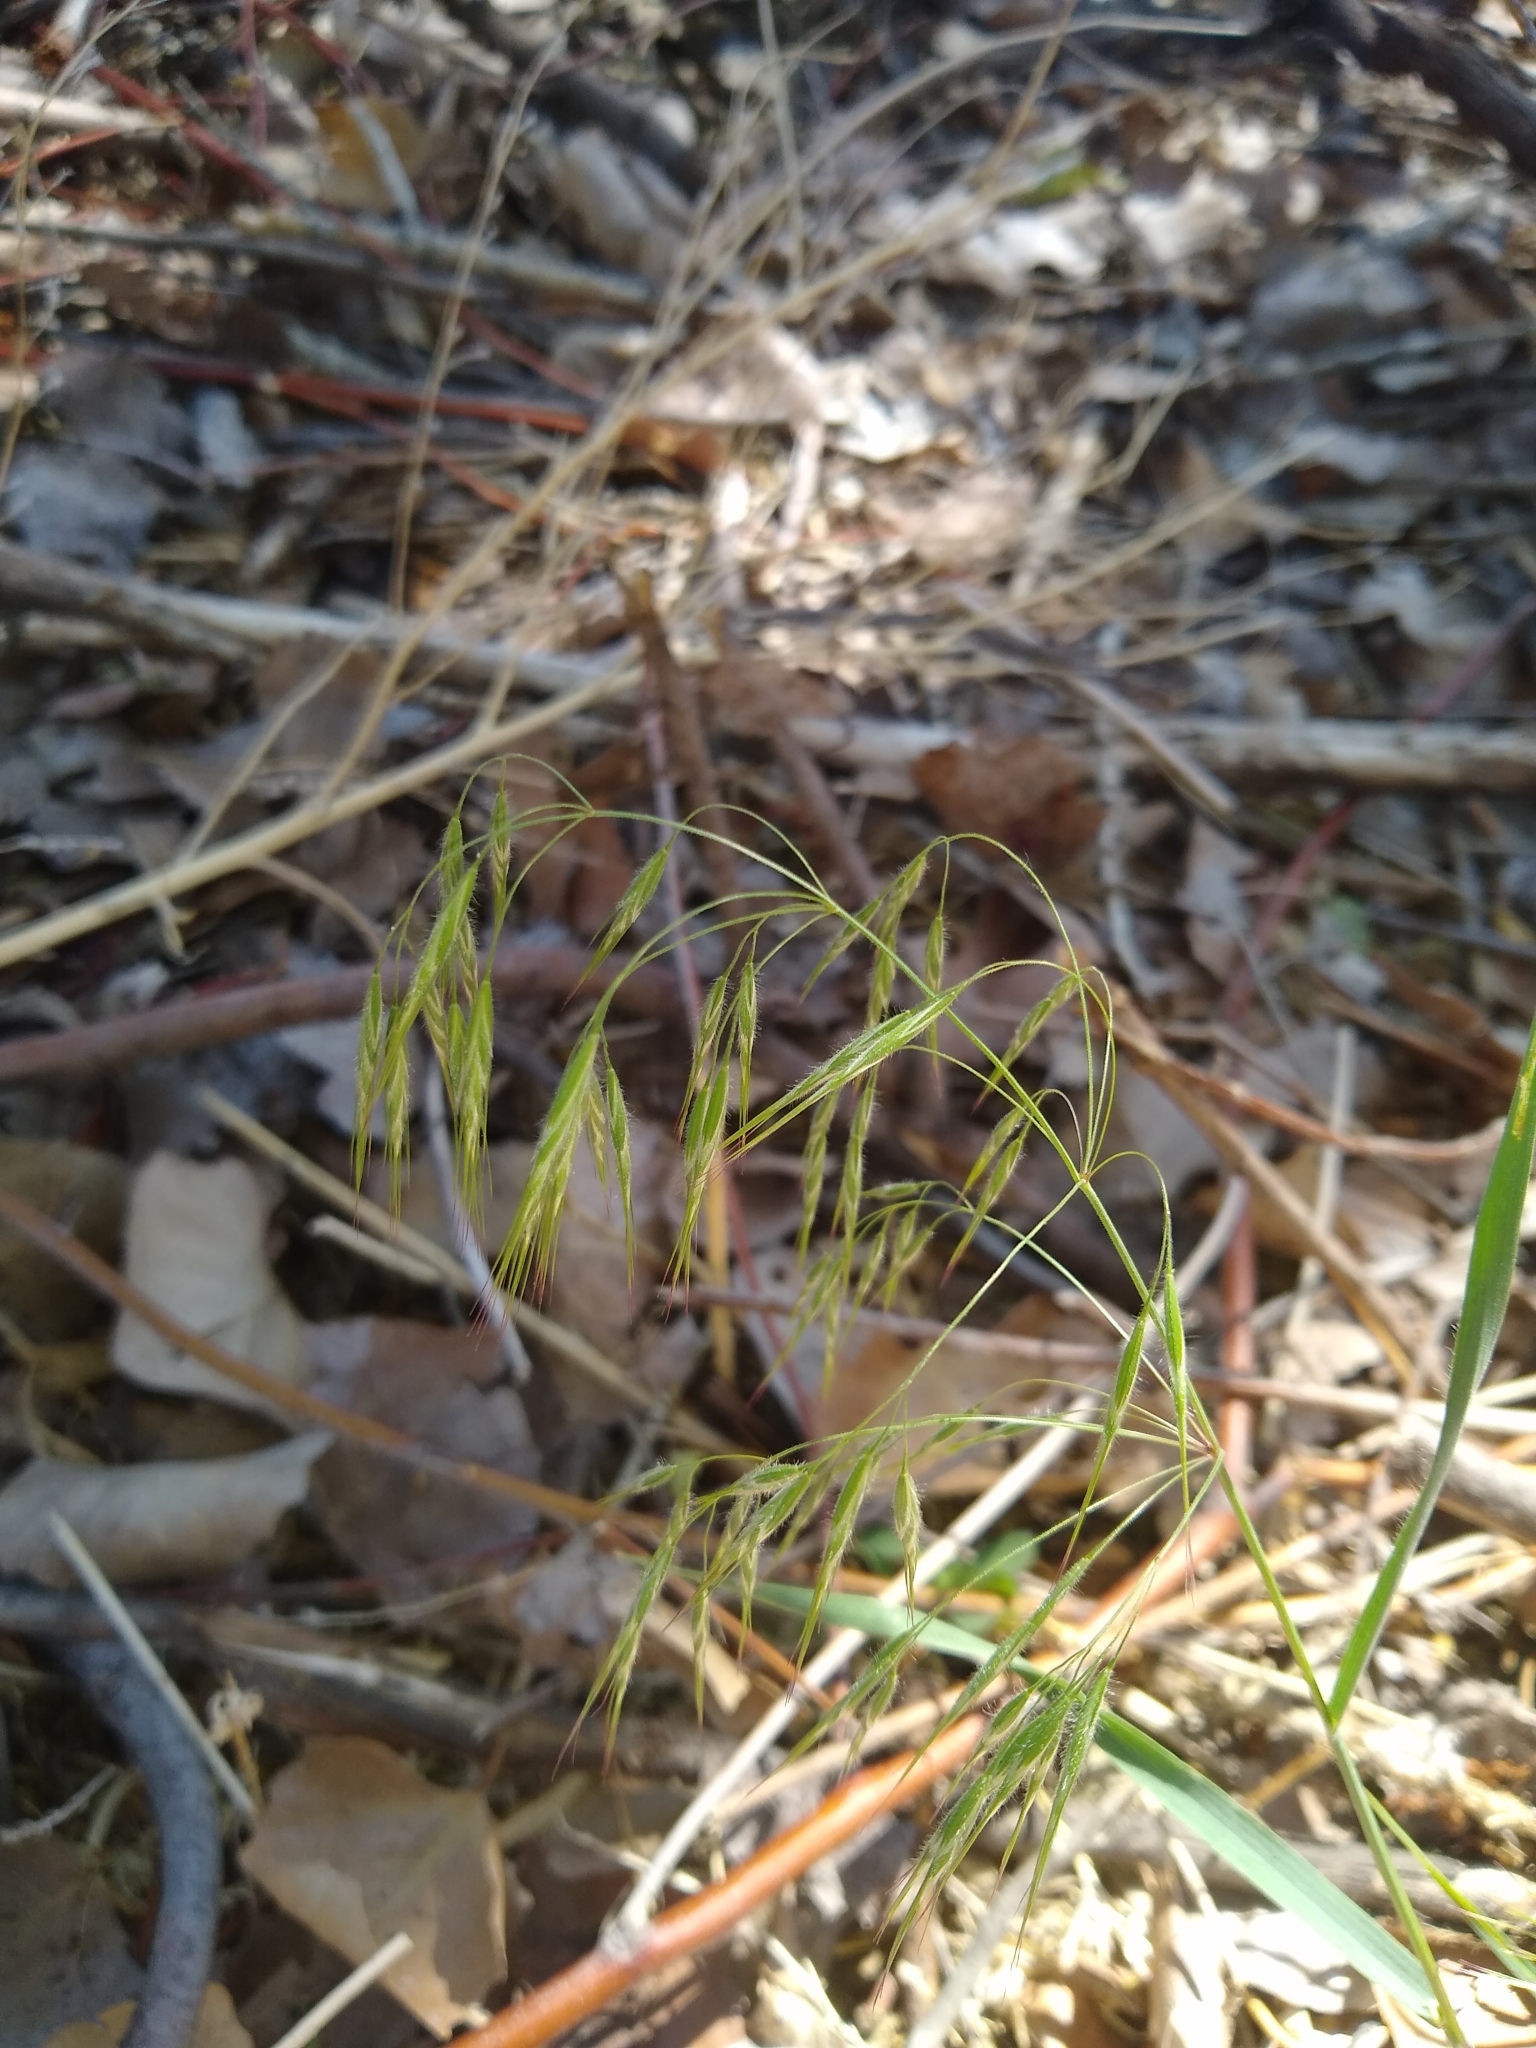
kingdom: Plantae
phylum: Tracheophyta
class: Liliopsida
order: Poales
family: Poaceae
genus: Bromus
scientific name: Bromus tectorum
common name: Cheatgrass
